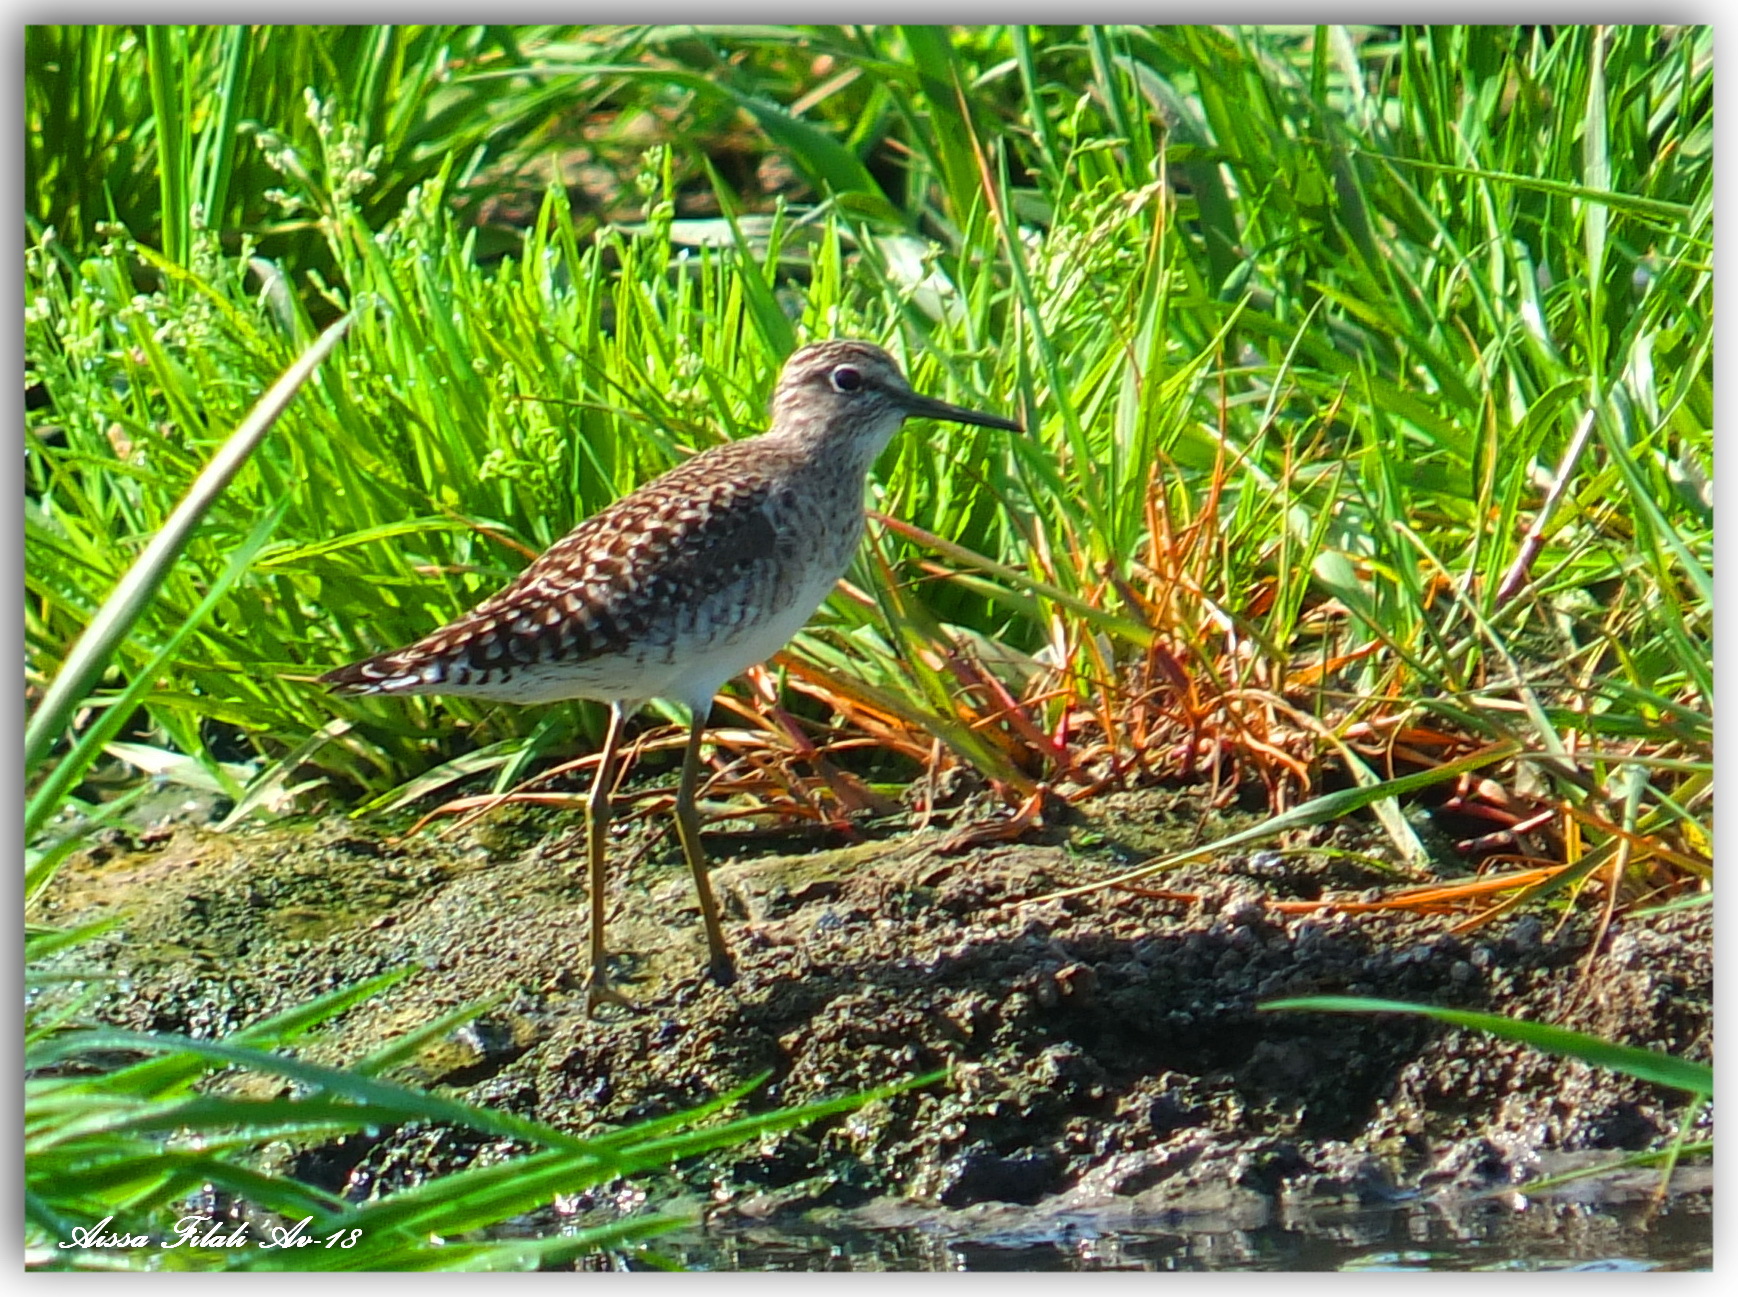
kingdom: Animalia
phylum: Chordata
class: Aves
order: Charadriiformes
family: Scolopacidae
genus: Tringa
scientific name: Tringa glareola
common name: Wood sandpiper
